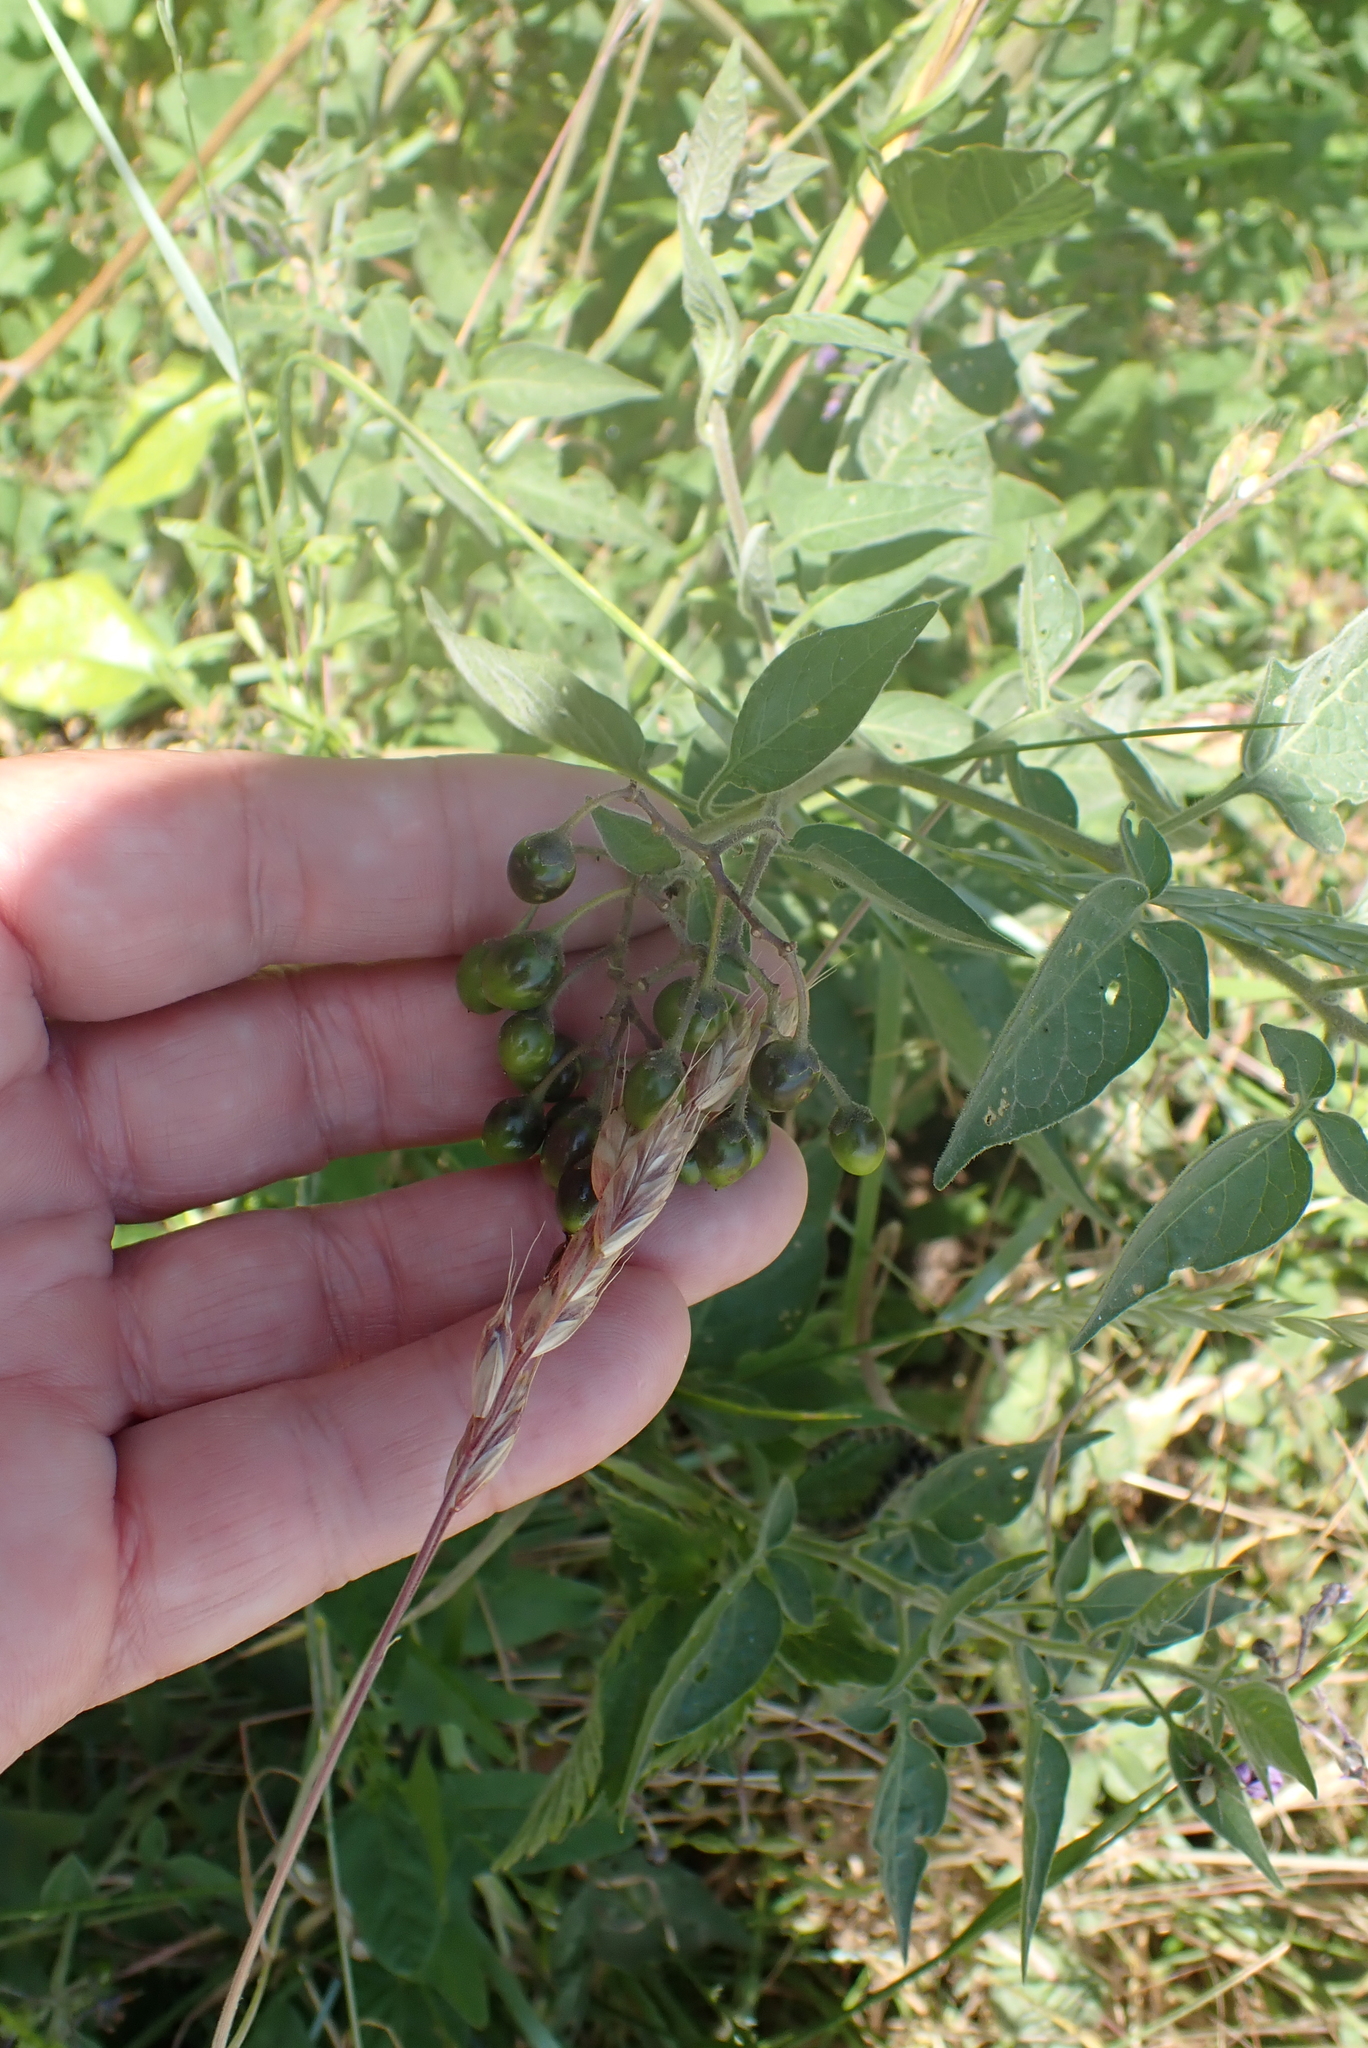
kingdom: Plantae
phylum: Tracheophyta
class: Magnoliopsida
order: Solanales
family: Solanaceae
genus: Solanum
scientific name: Solanum dulcamara
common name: Climbing nightshade
